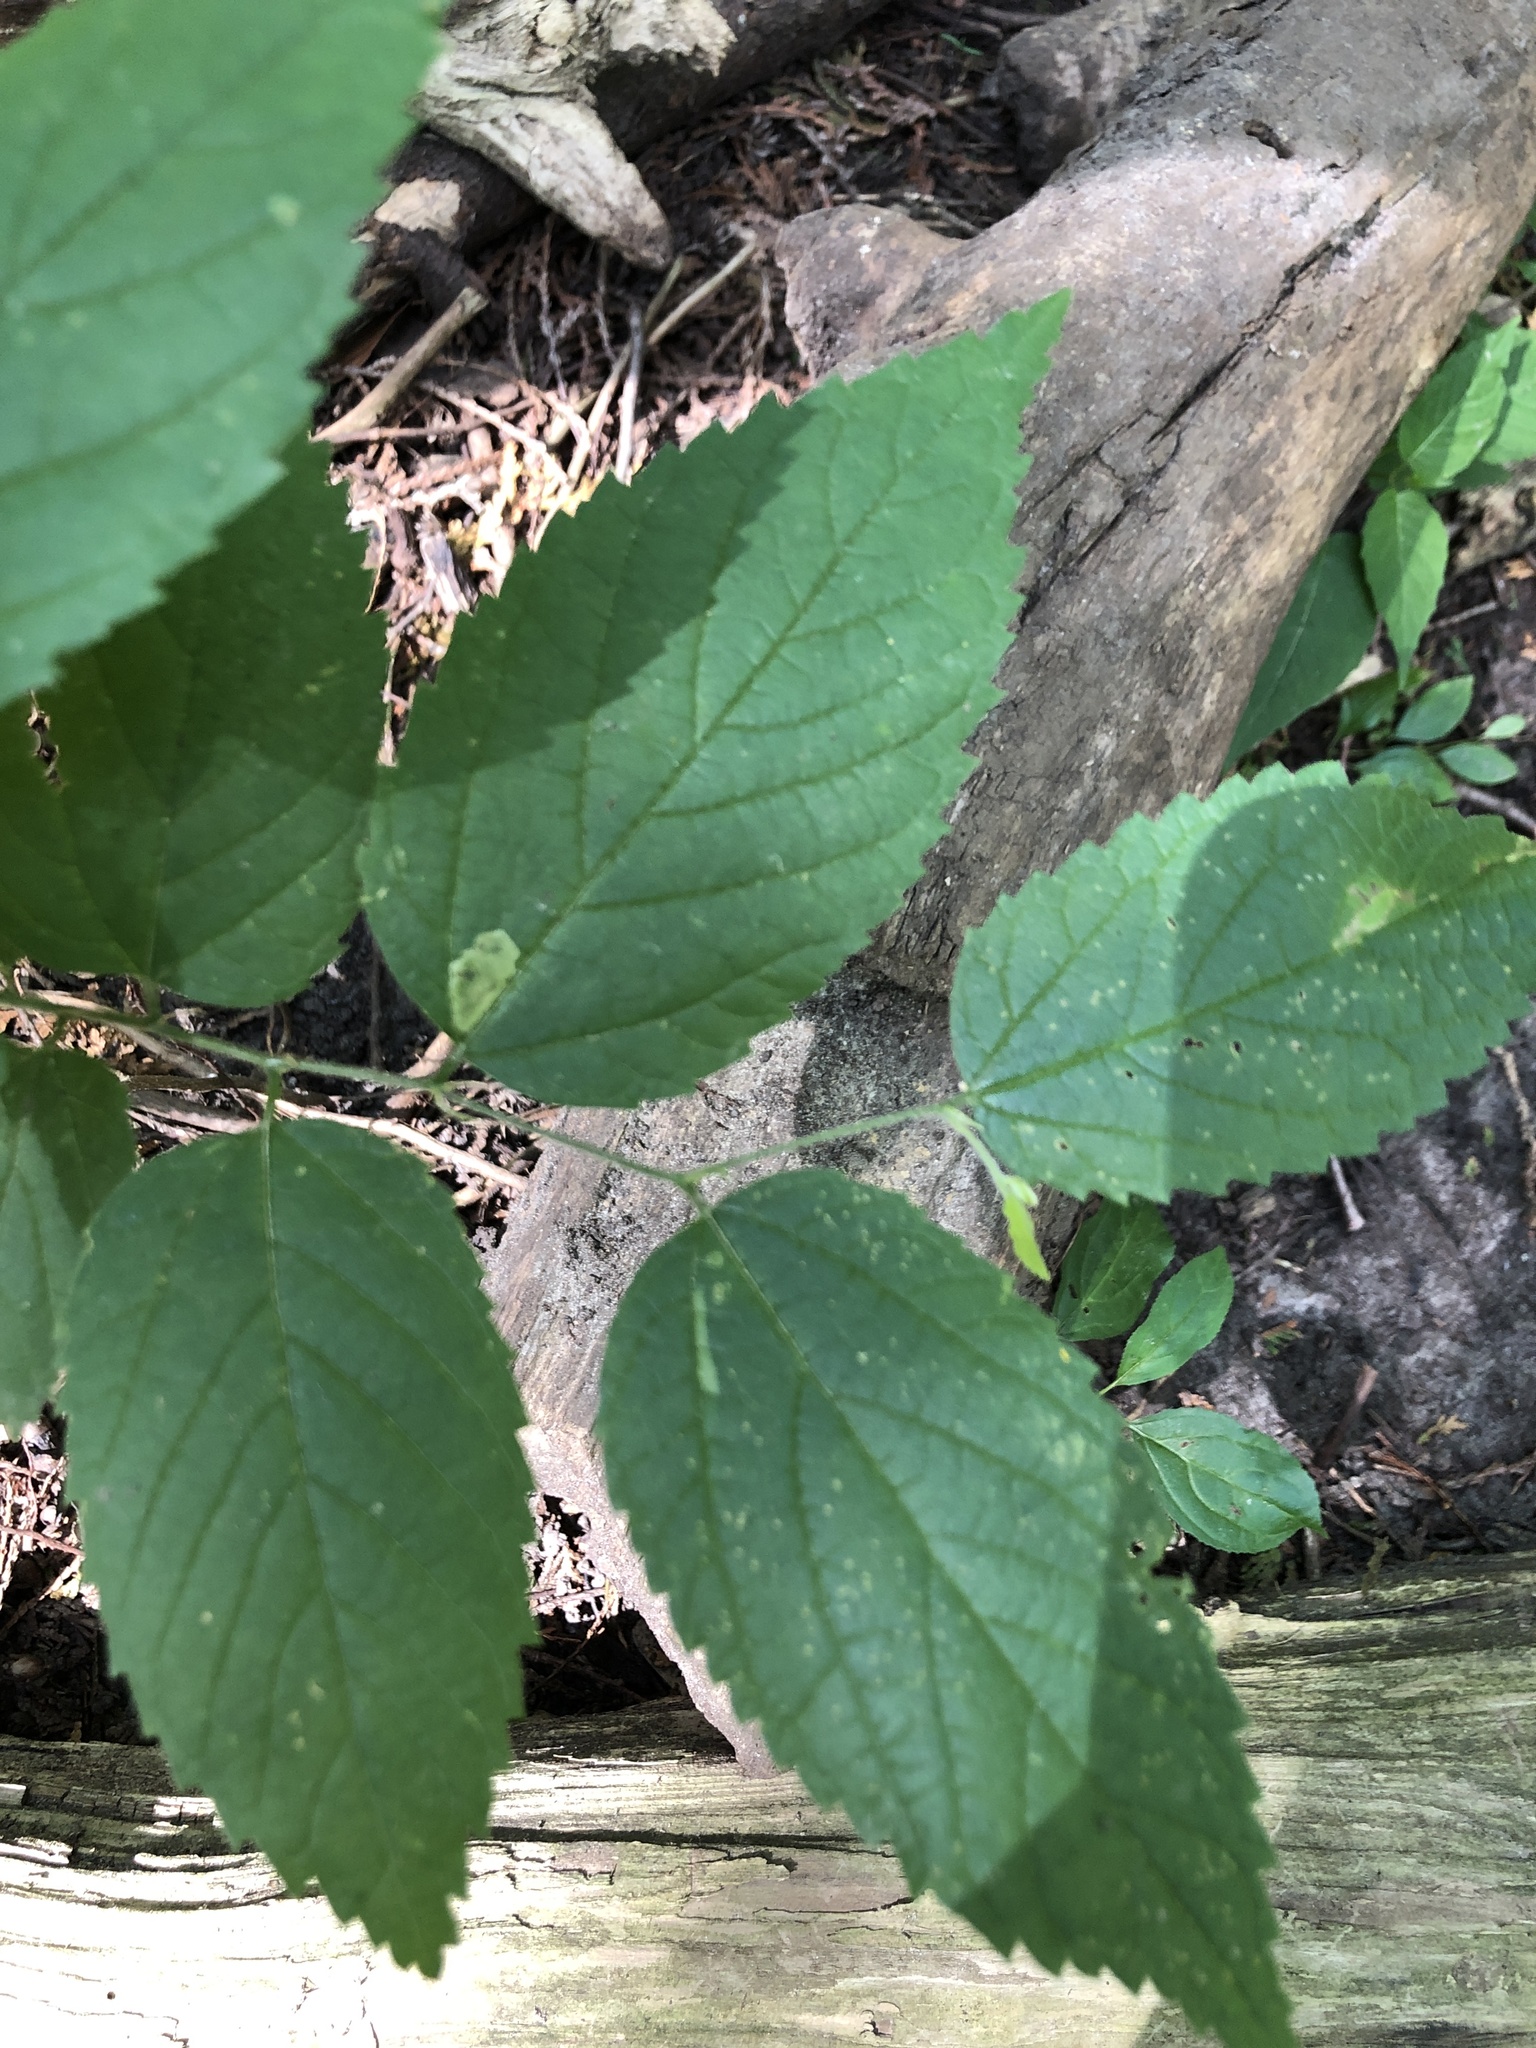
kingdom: Plantae
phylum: Tracheophyta
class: Magnoliopsida
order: Rosales
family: Cannabaceae
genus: Celtis
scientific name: Celtis occidentalis
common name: Common hackberry
